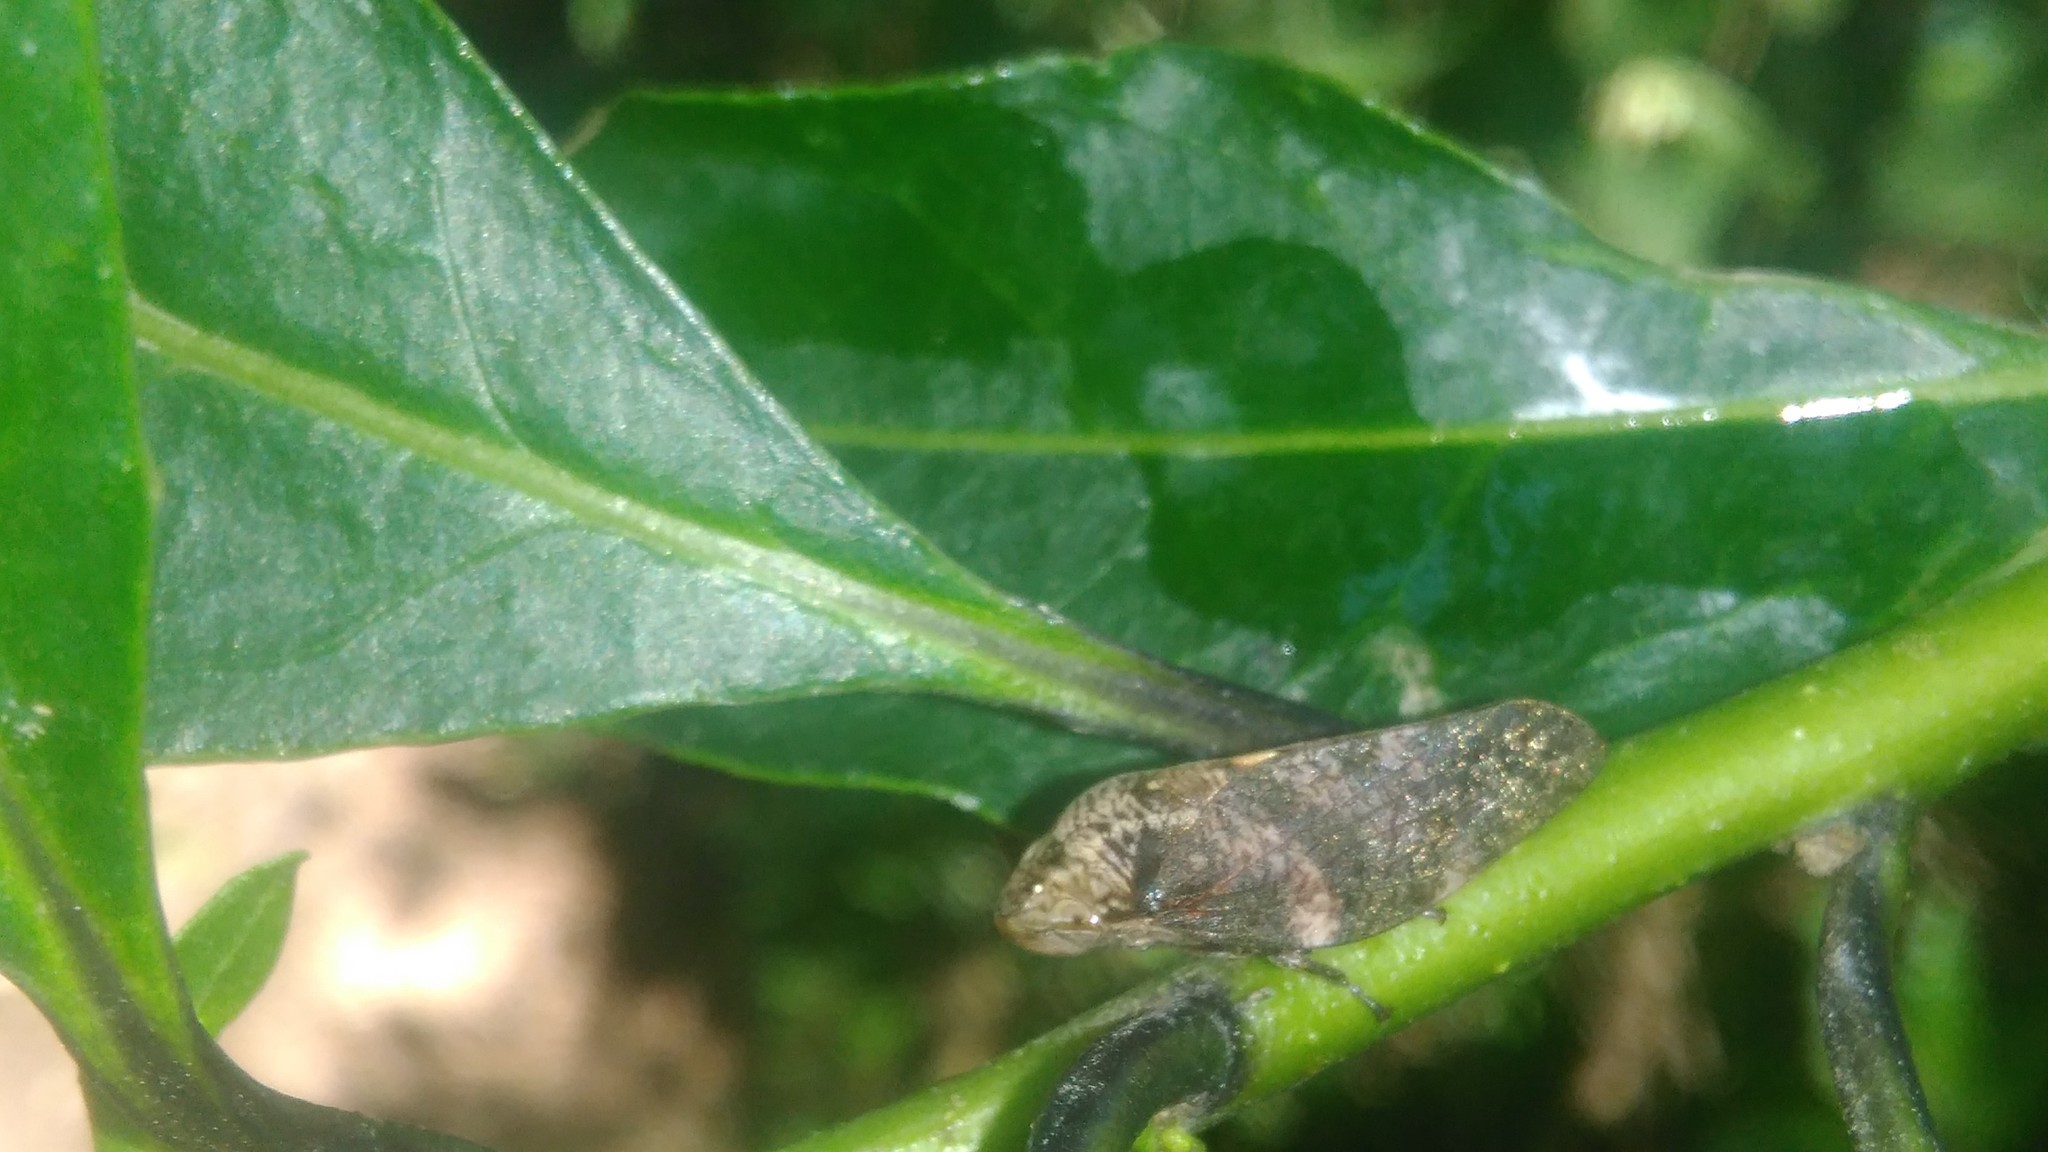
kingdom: Animalia
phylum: Arthropoda
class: Insecta
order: Hemiptera
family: Aphrophoridae
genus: Cephisus
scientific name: Cephisus siccifolius
